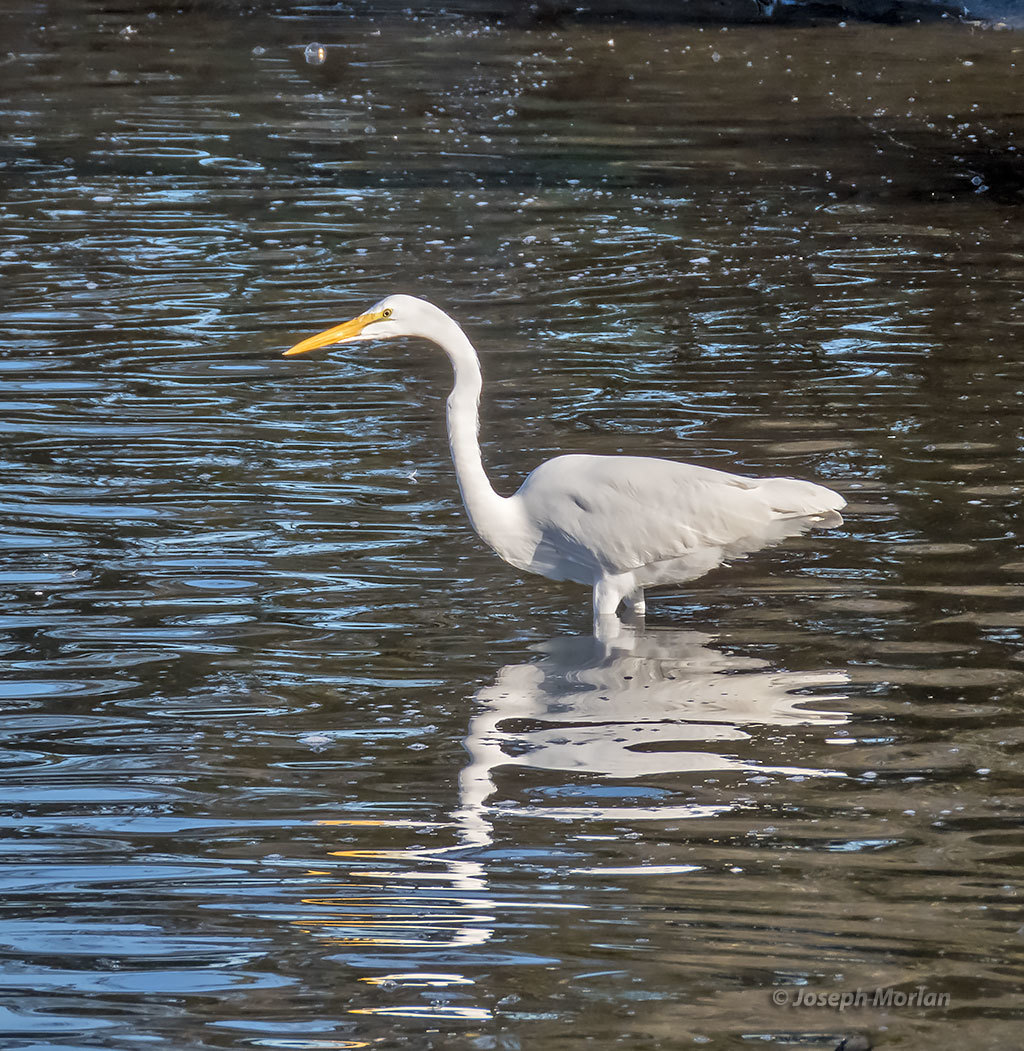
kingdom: Animalia
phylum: Chordata
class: Aves
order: Pelecaniformes
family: Ardeidae
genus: Ardea
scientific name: Ardea alba
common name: Great egret
